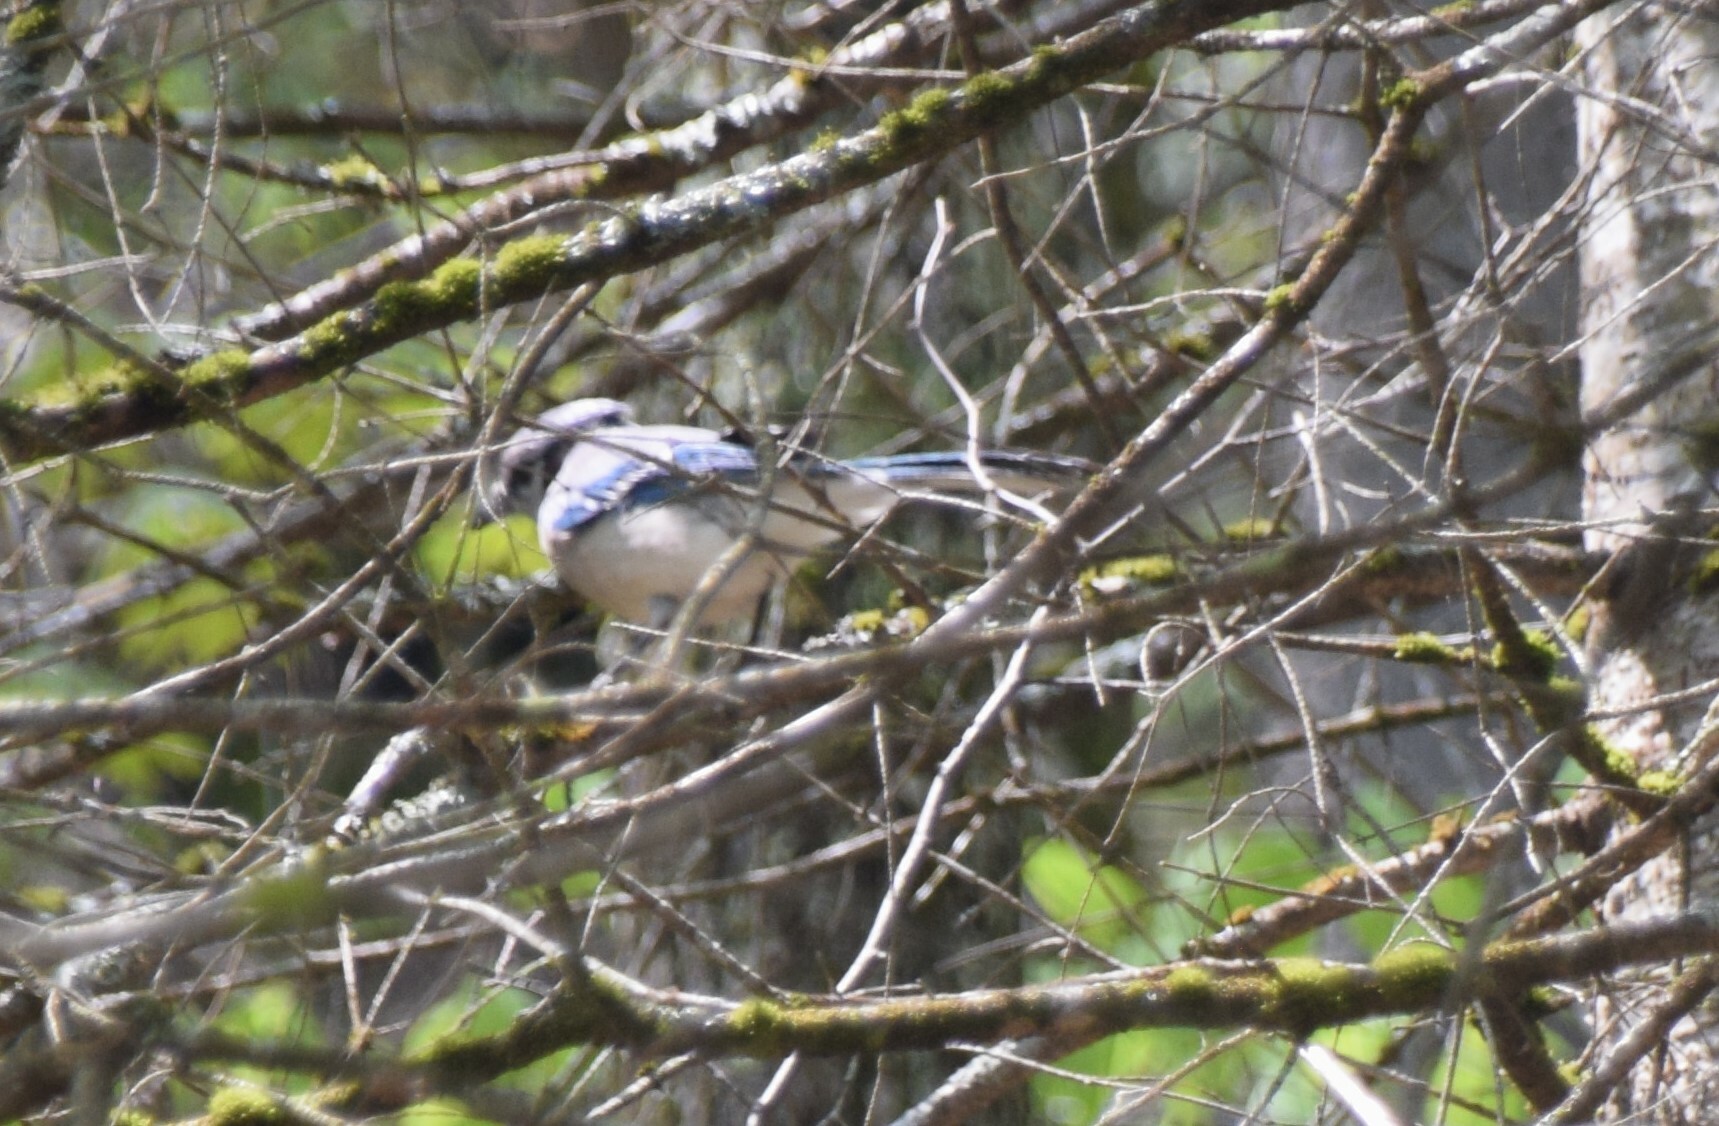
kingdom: Animalia
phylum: Chordata
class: Aves
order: Passeriformes
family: Corvidae
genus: Cyanocitta
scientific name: Cyanocitta cristata
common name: Blue jay
